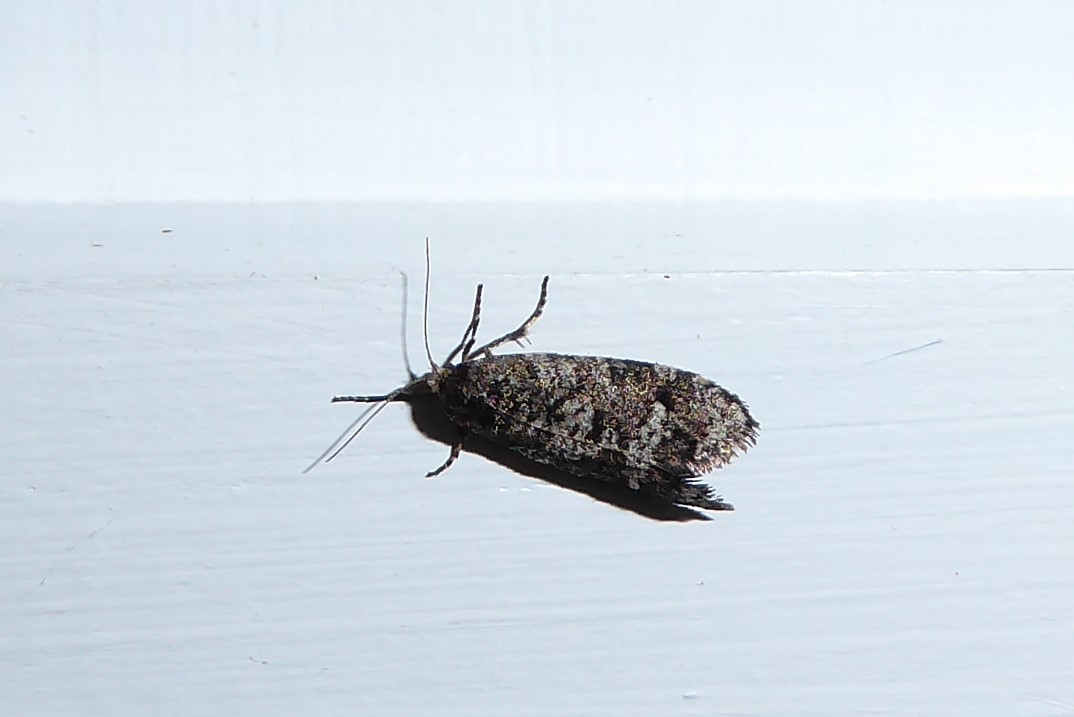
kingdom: Animalia
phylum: Arthropoda
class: Insecta
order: Lepidoptera
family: Psychidae
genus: Lepidoscia
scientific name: Lepidoscia heliochares
